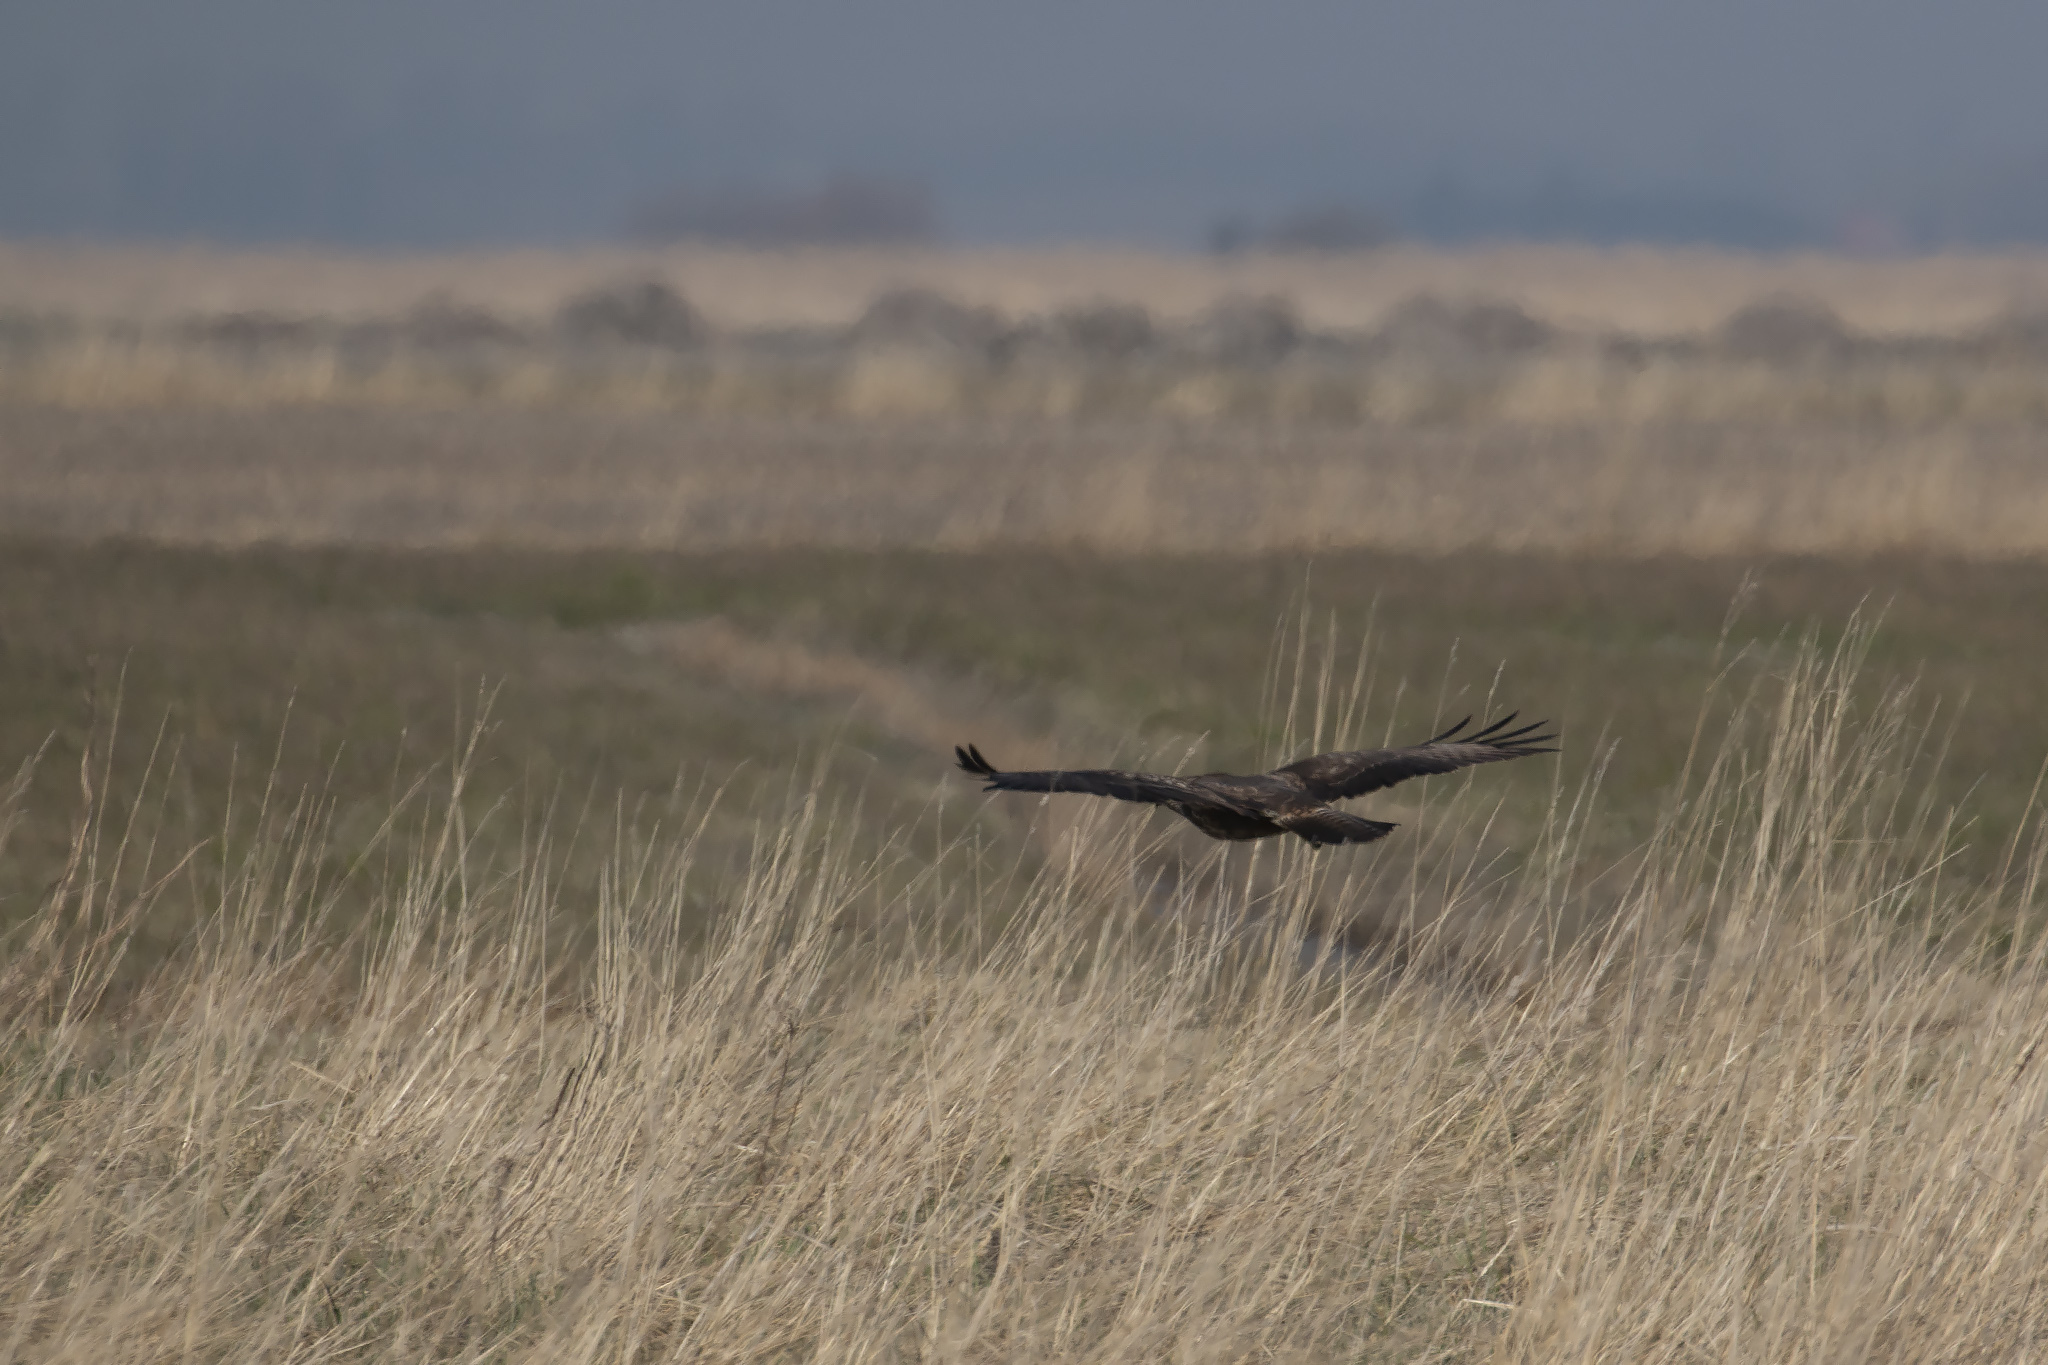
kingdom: Animalia
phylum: Chordata
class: Aves
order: Accipitriformes
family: Accipitridae
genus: Buteo
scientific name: Buteo buteo
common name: Common buzzard
